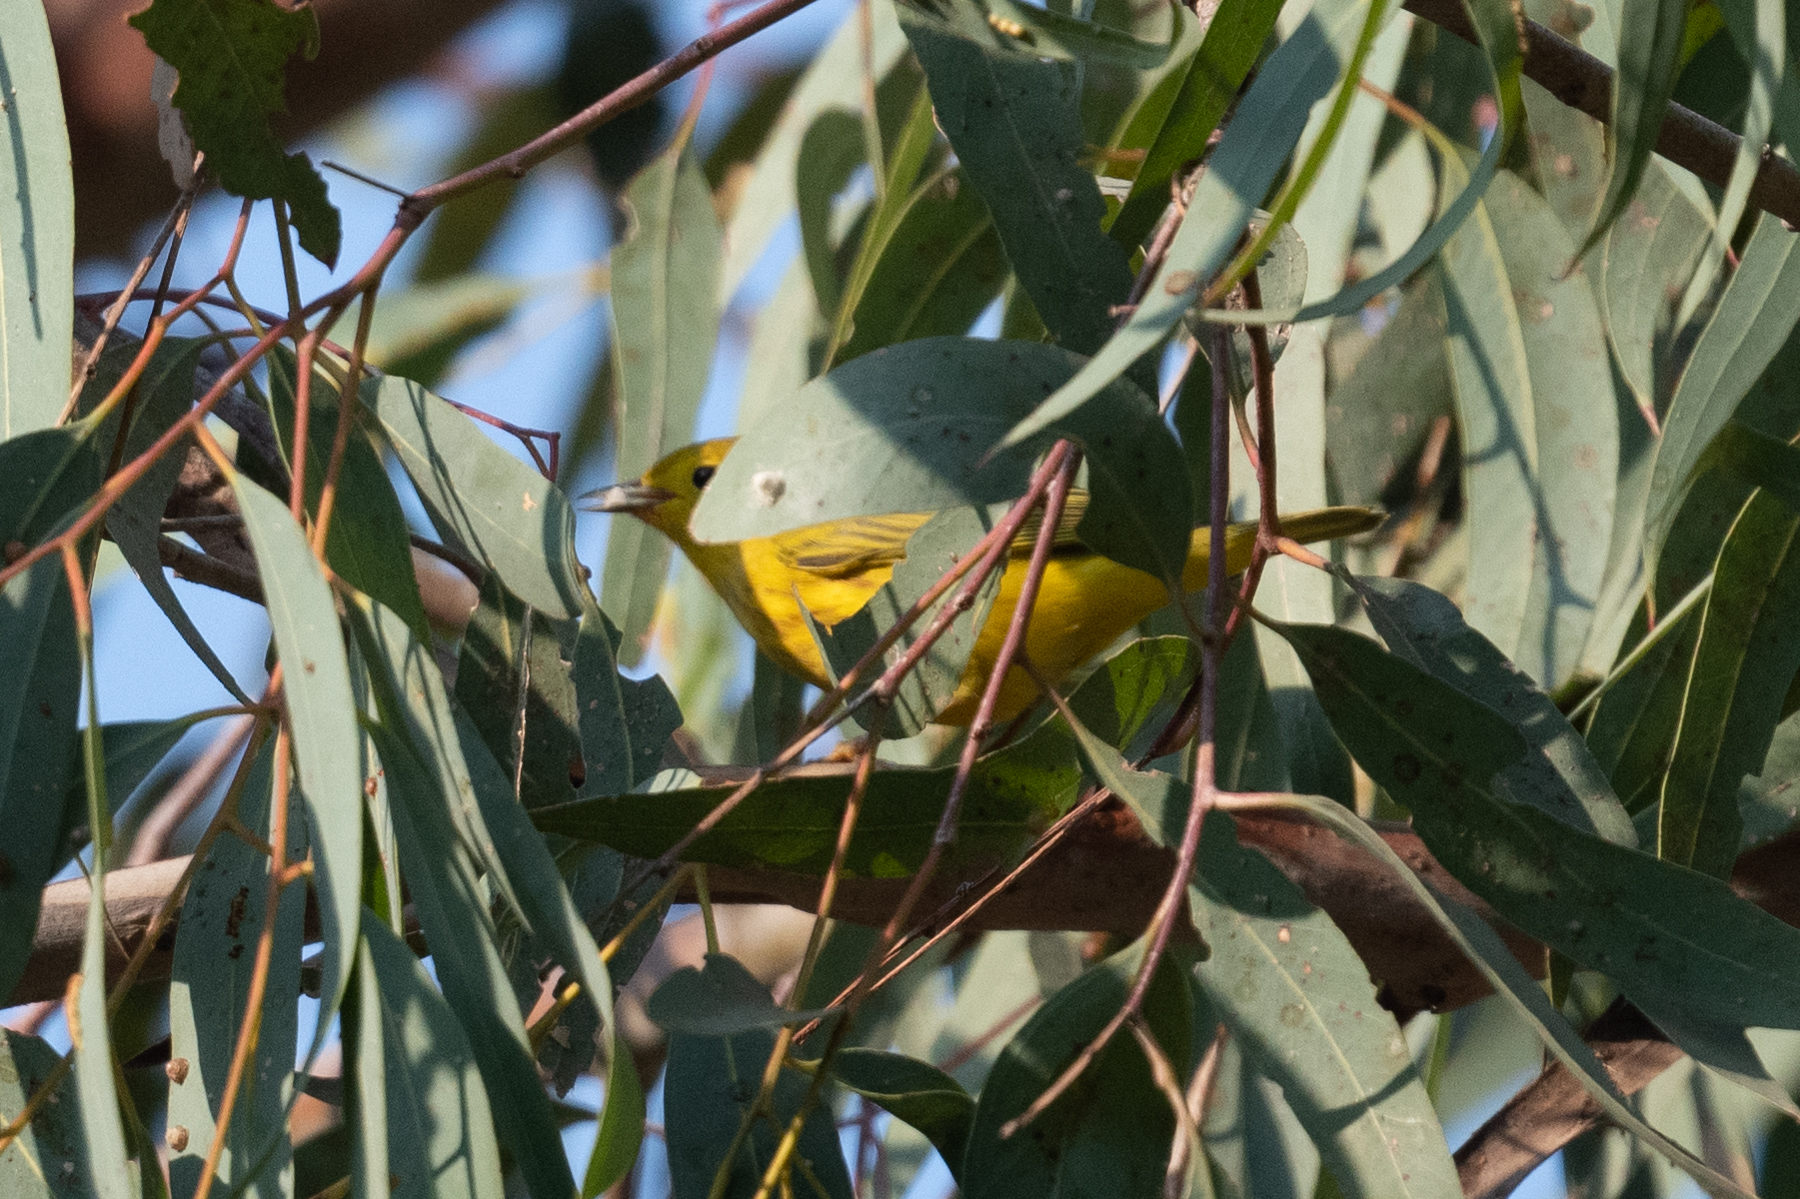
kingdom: Animalia
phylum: Chordata
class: Aves
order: Passeriformes
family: Parulidae
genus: Setophaga
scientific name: Setophaga petechia
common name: Yellow warbler
